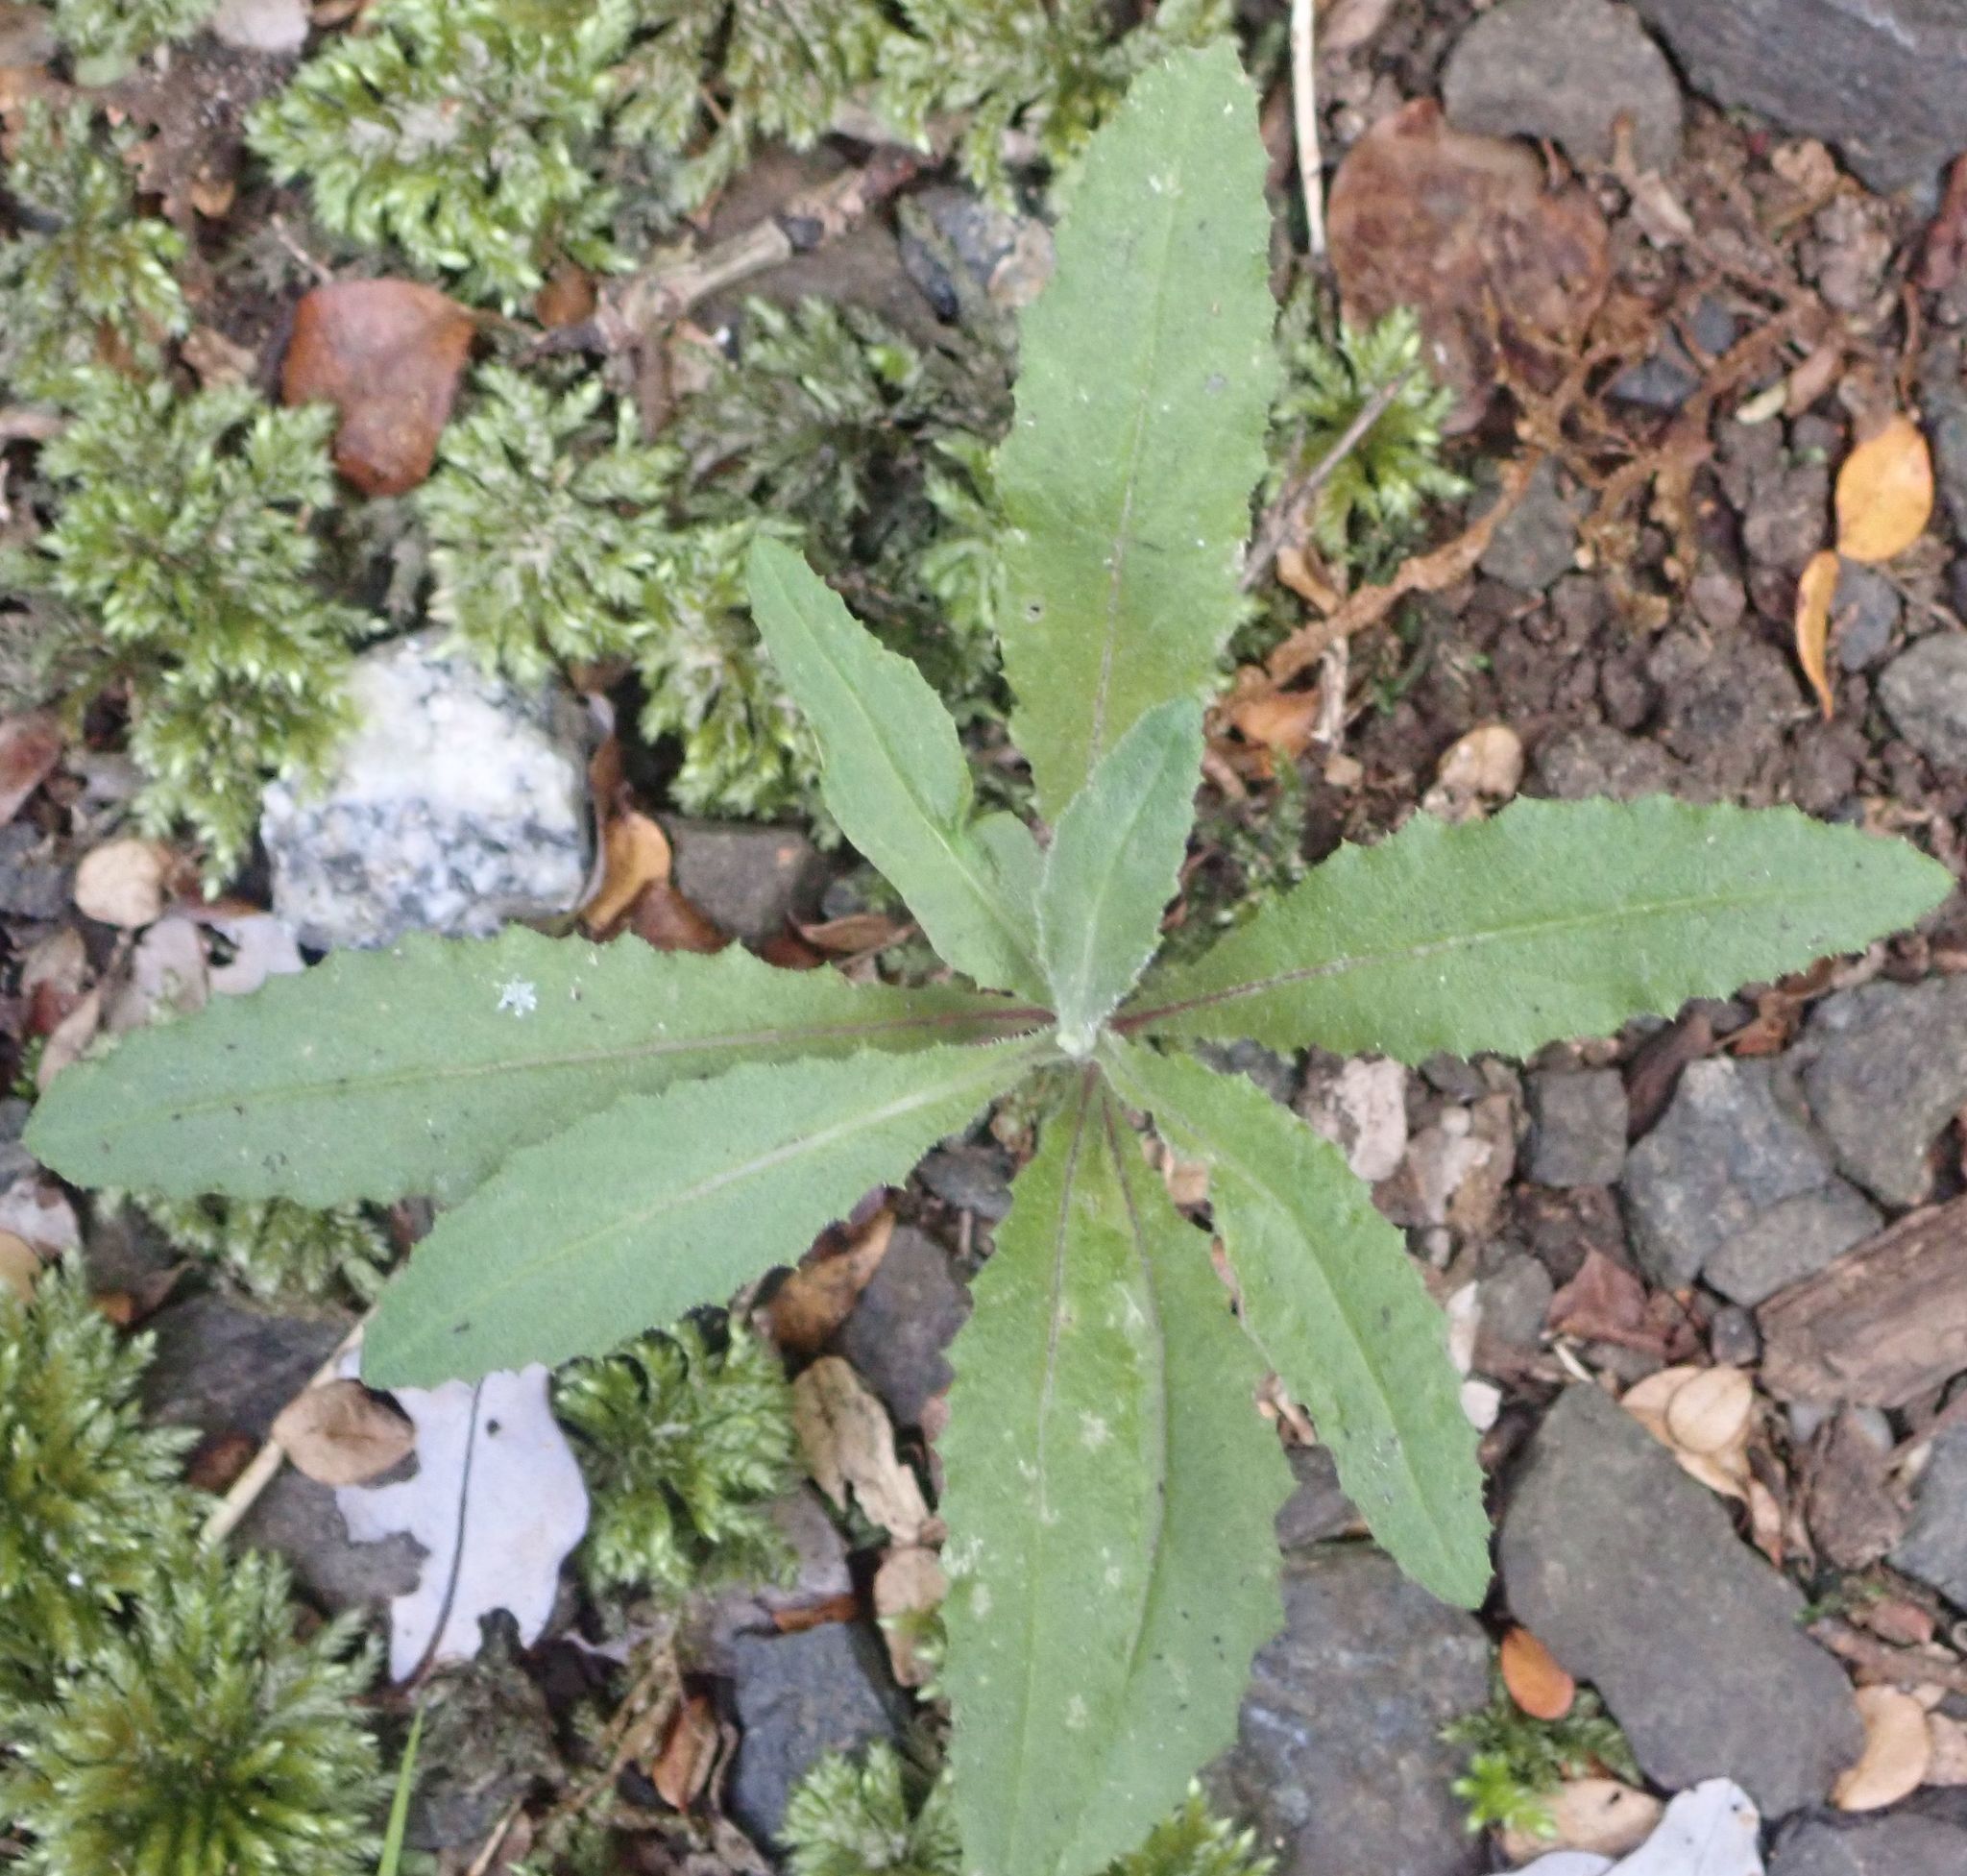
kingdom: Plantae
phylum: Tracheophyta
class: Magnoliopsida
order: Asterales
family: Asteraceae
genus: Senecio
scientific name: Senecio minimus
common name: Toothed fireweed
